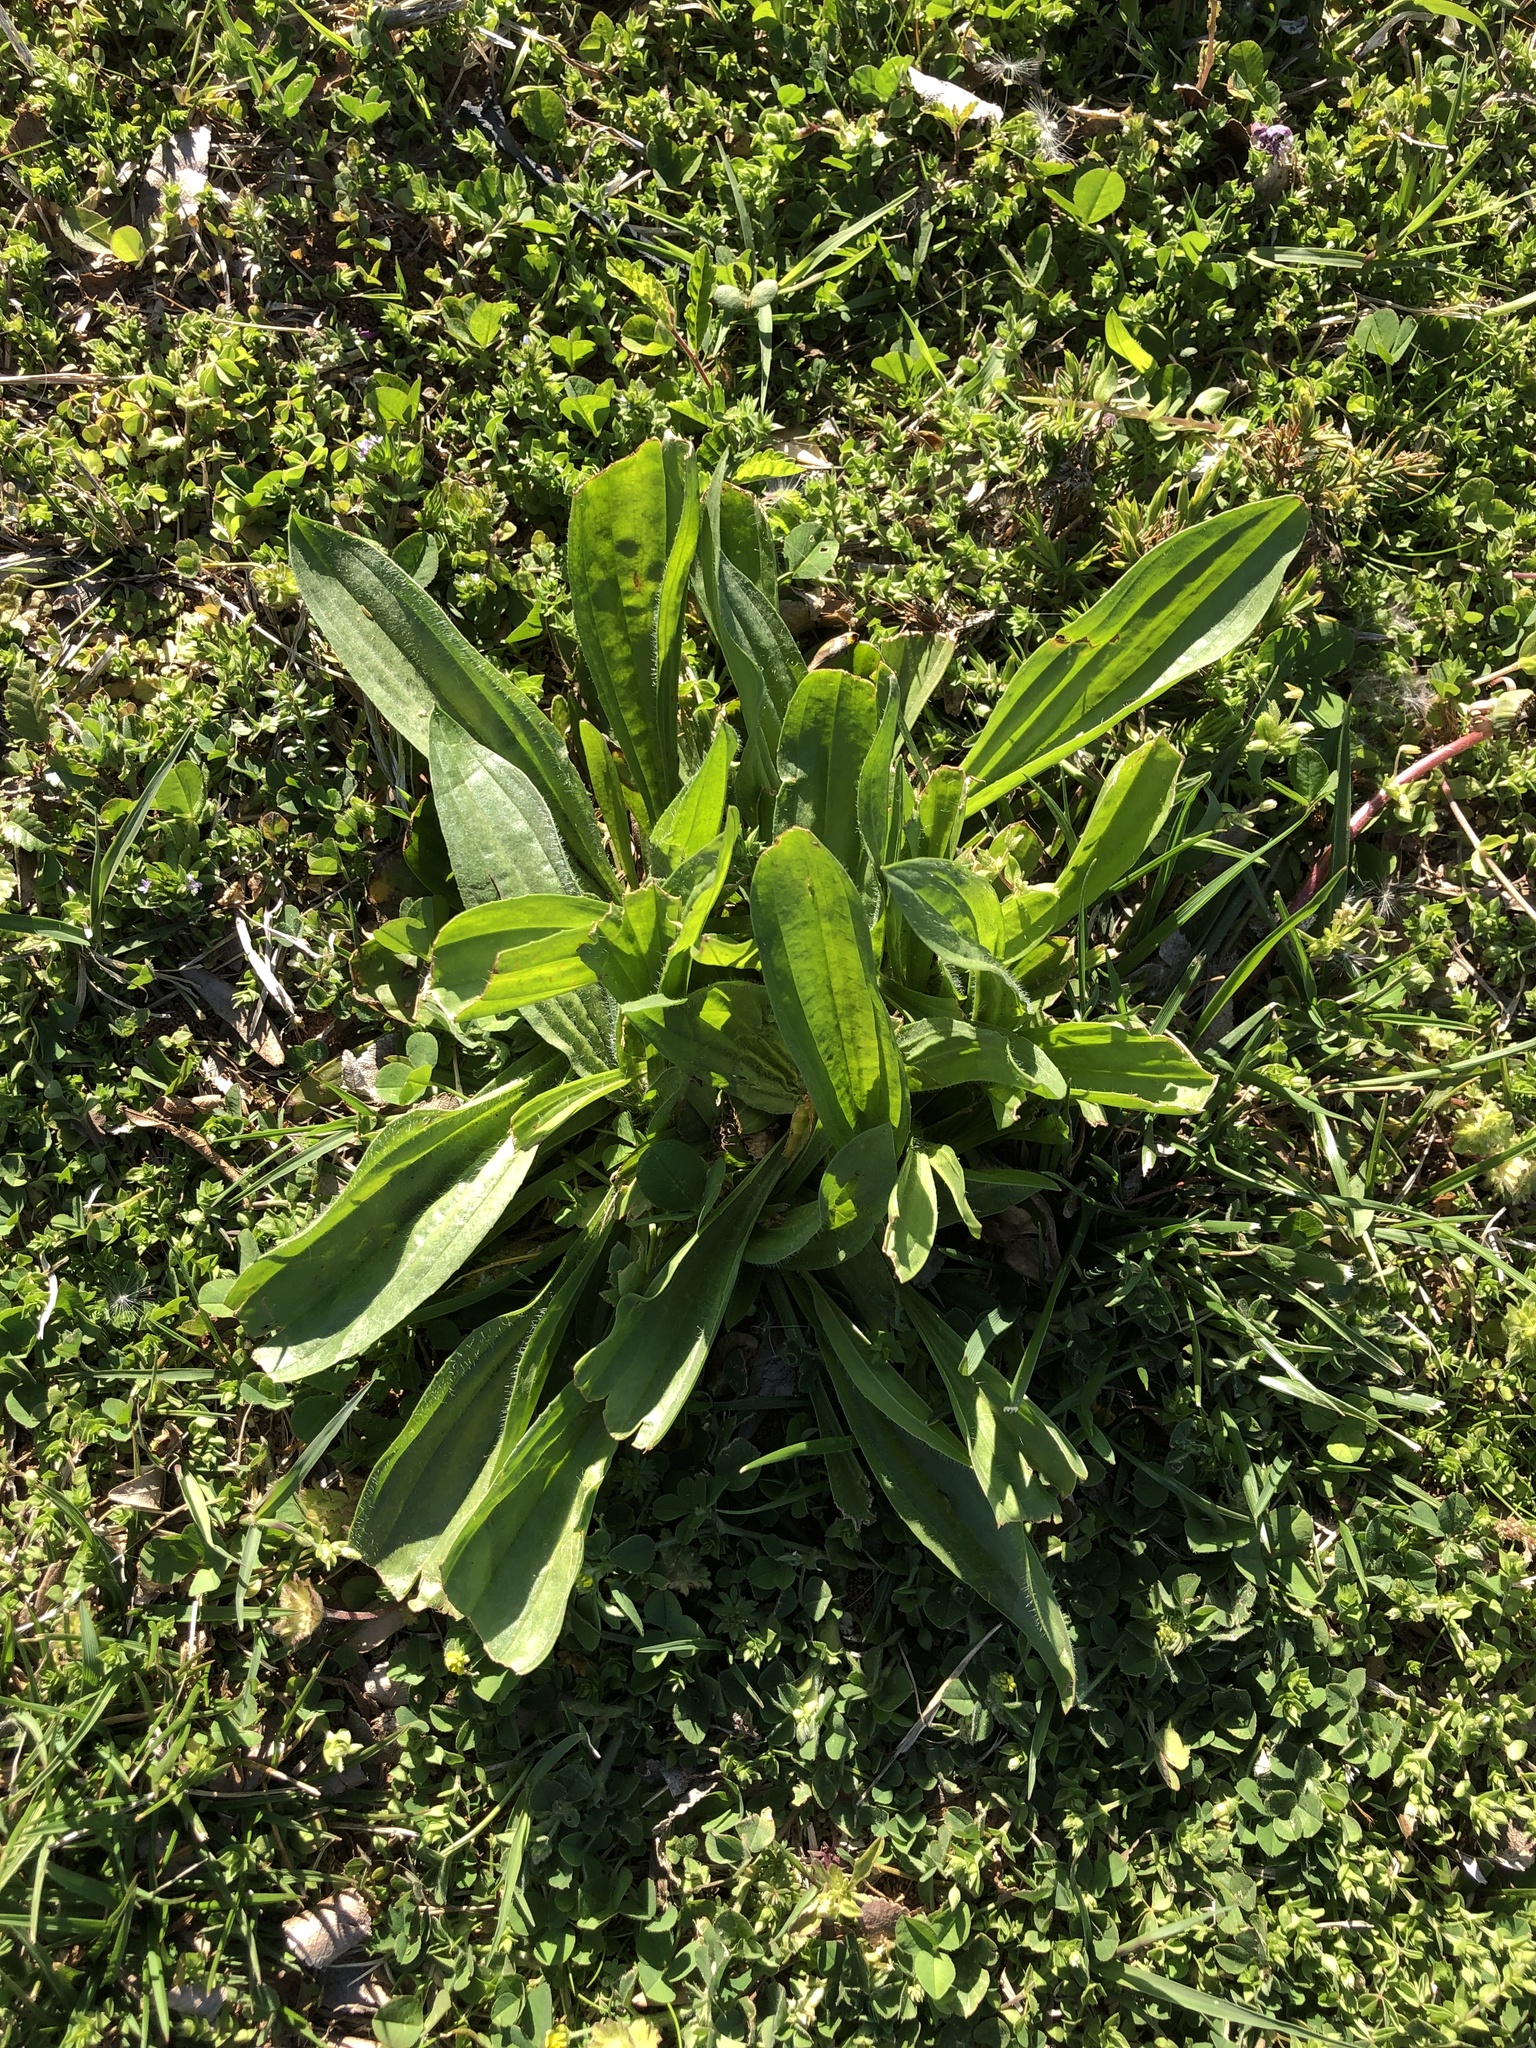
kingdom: Plantae
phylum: Tracheophyta
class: Magnoliopsida
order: Lamiales
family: Plantaginaceae
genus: Plantago
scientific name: Plantago lanceolata
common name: Ribwort plantain
